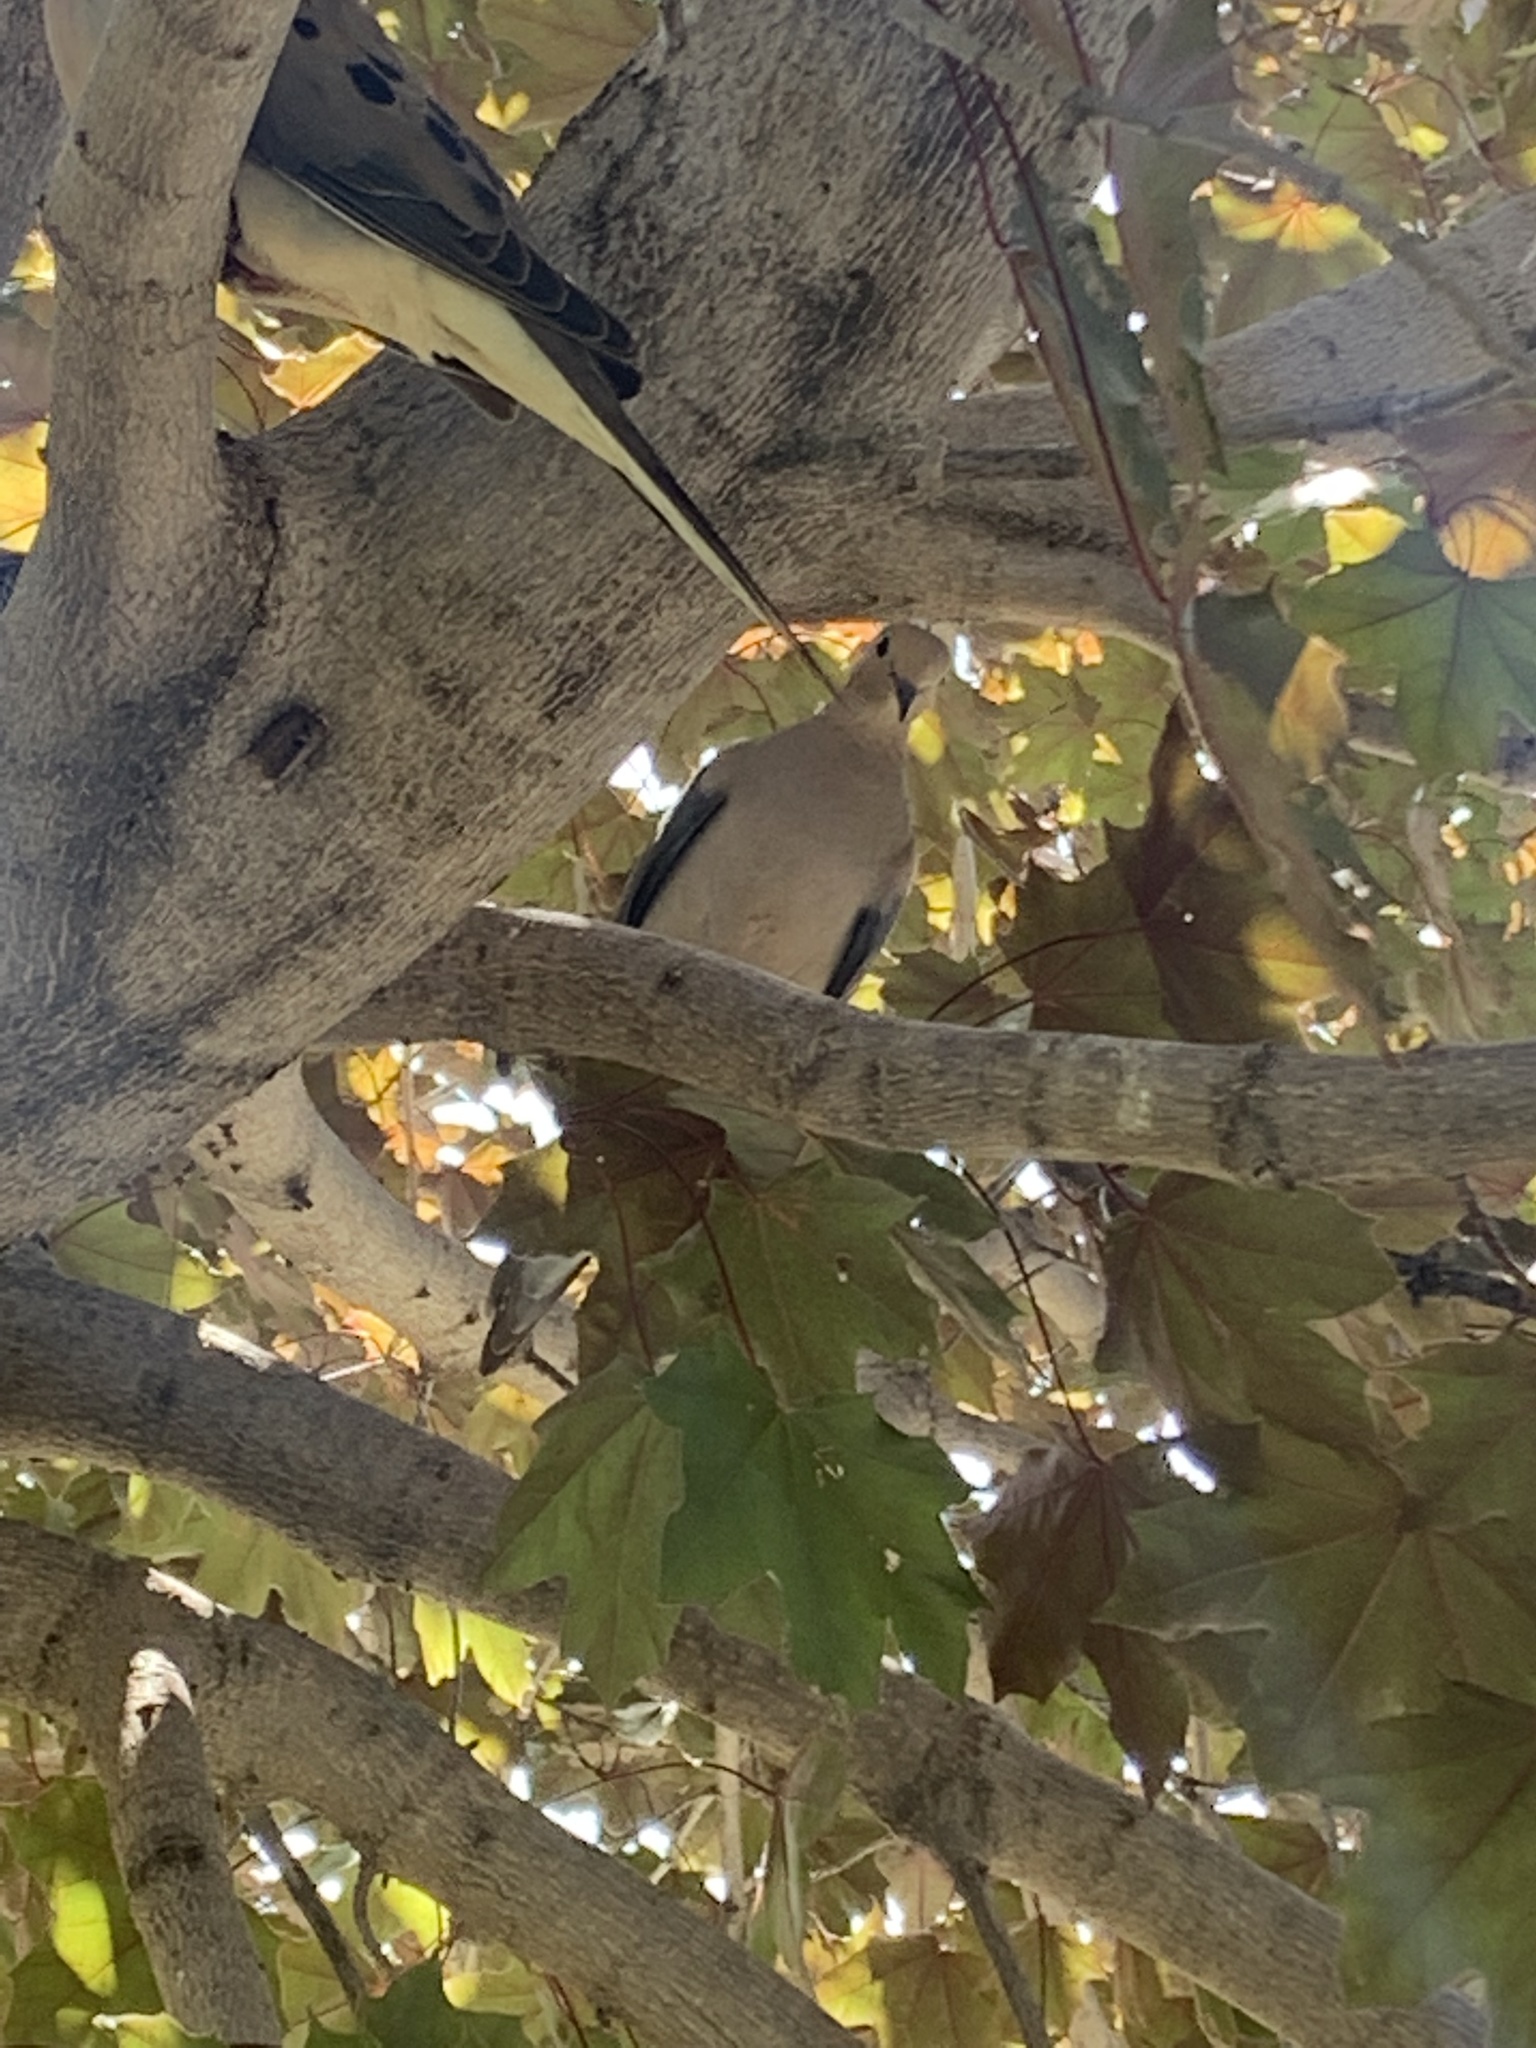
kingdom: Animalia
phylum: Chordata
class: Aves
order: Columbiformes
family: Columbidae
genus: Zenaida
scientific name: Zenaida macroura
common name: Mourning dove
